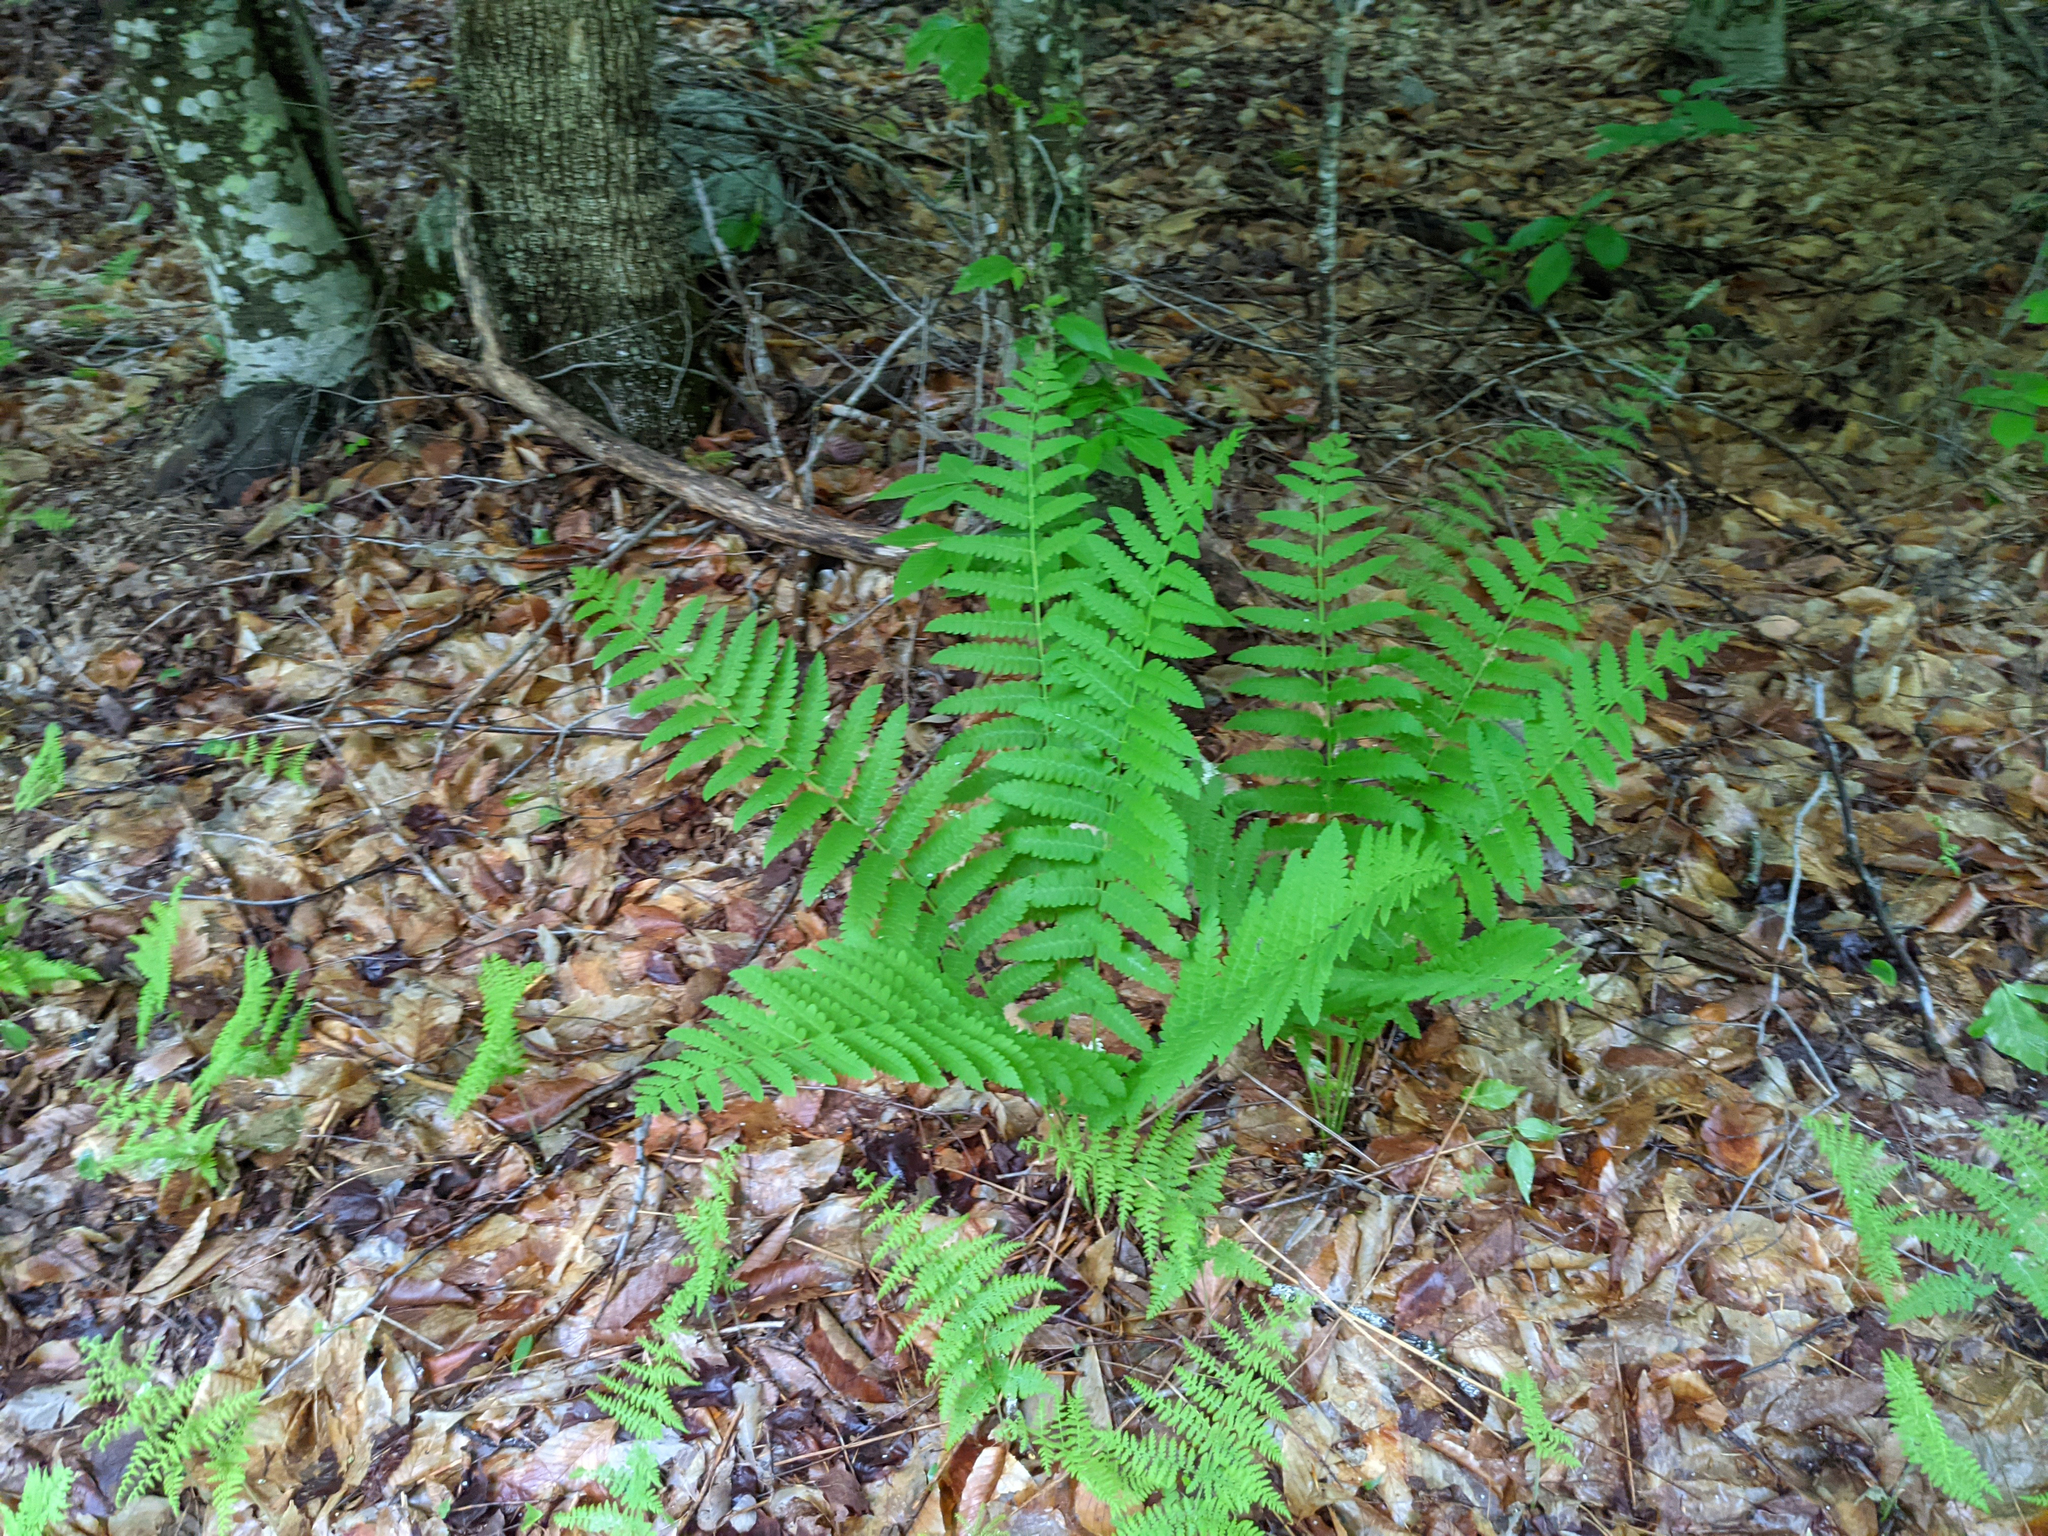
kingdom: Plantae
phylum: Tracheophyta
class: Polypodiopsida
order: Osmundales
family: Osmundaceae
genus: Claytosmunda
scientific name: Claytosmunda claytoniana
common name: Clayton's fern
